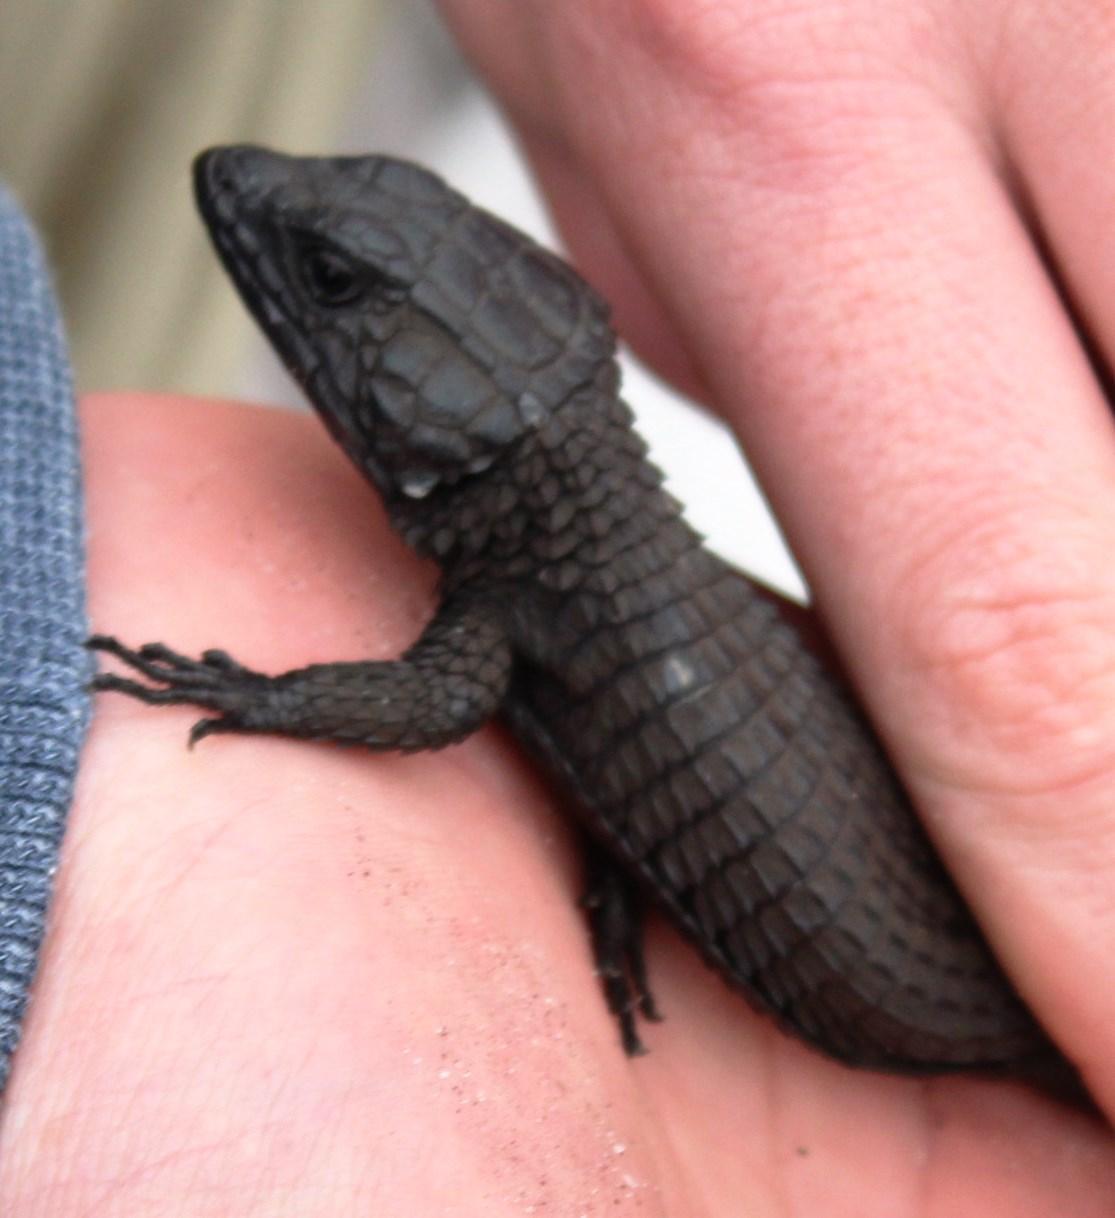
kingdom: Animalia
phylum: Chordata
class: Squamata
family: Cordylidae
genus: Cordylus
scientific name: Cordylus niger
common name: Black girdled lizard
